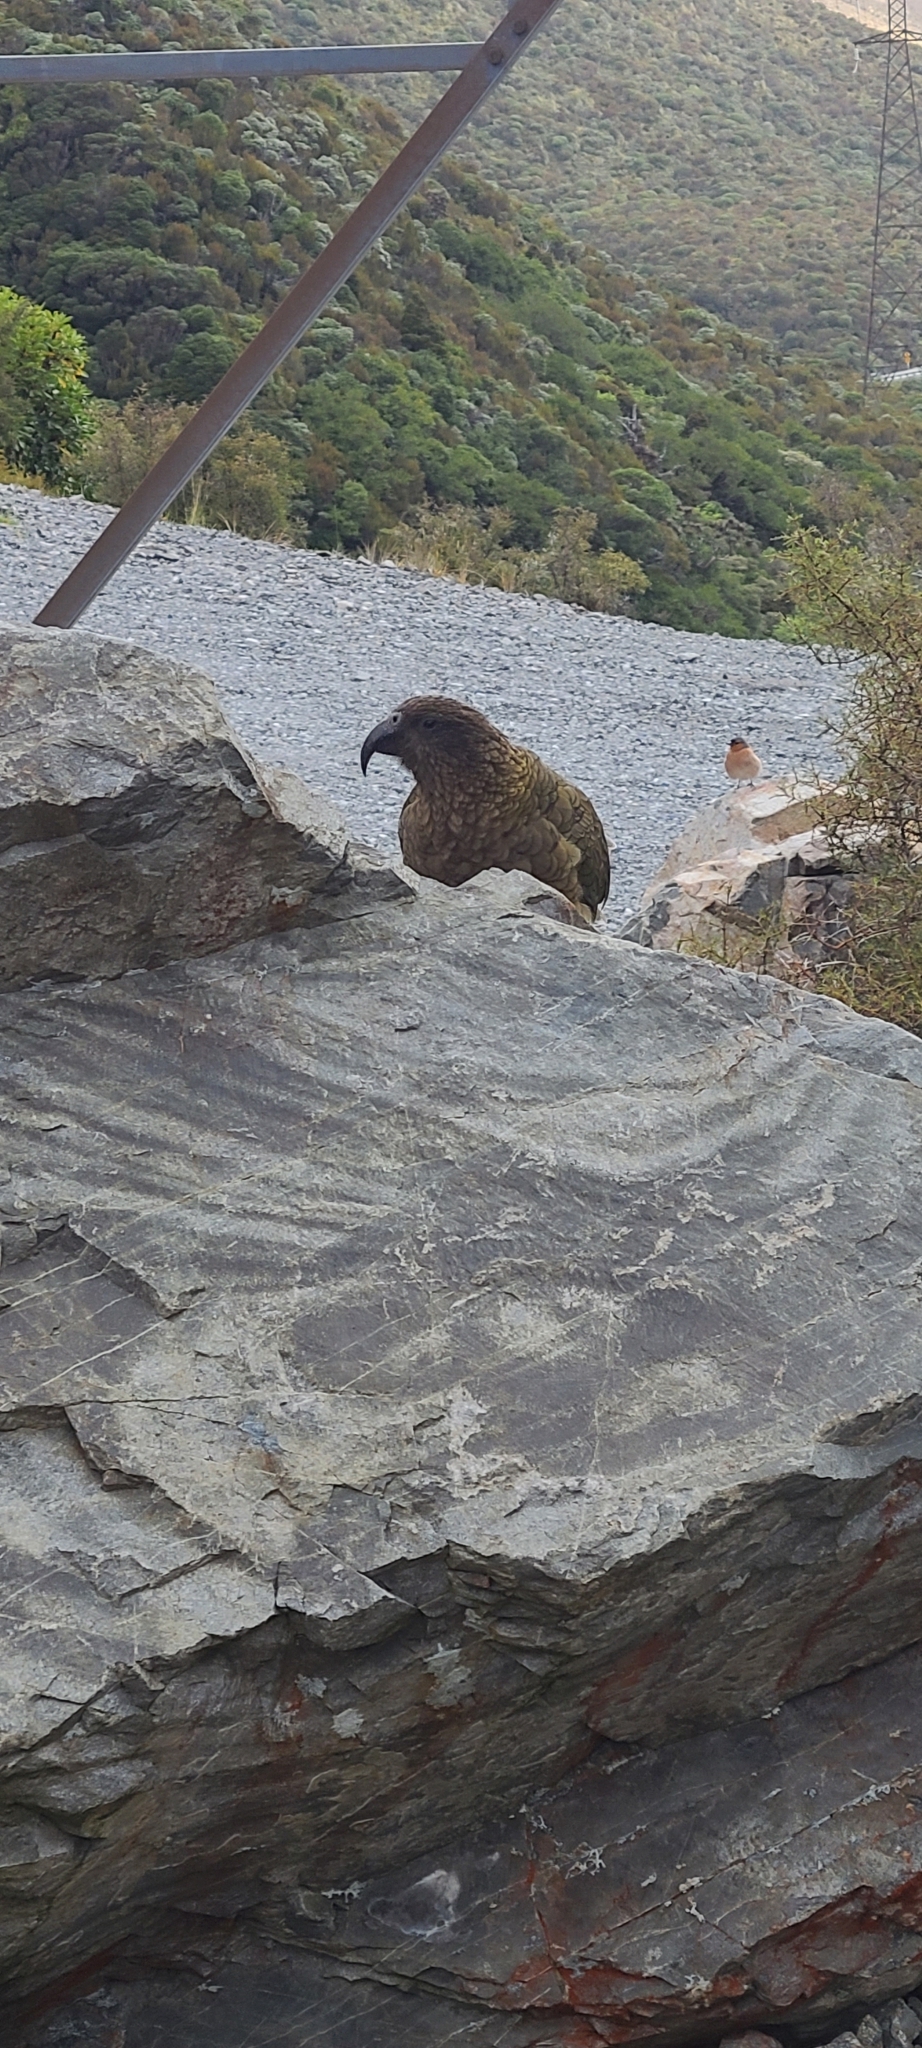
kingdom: Animalia
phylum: Chordata
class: Aves
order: Psittaciformes
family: Psittacidae
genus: Nestor
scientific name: Nestor notabilis
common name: Kea
